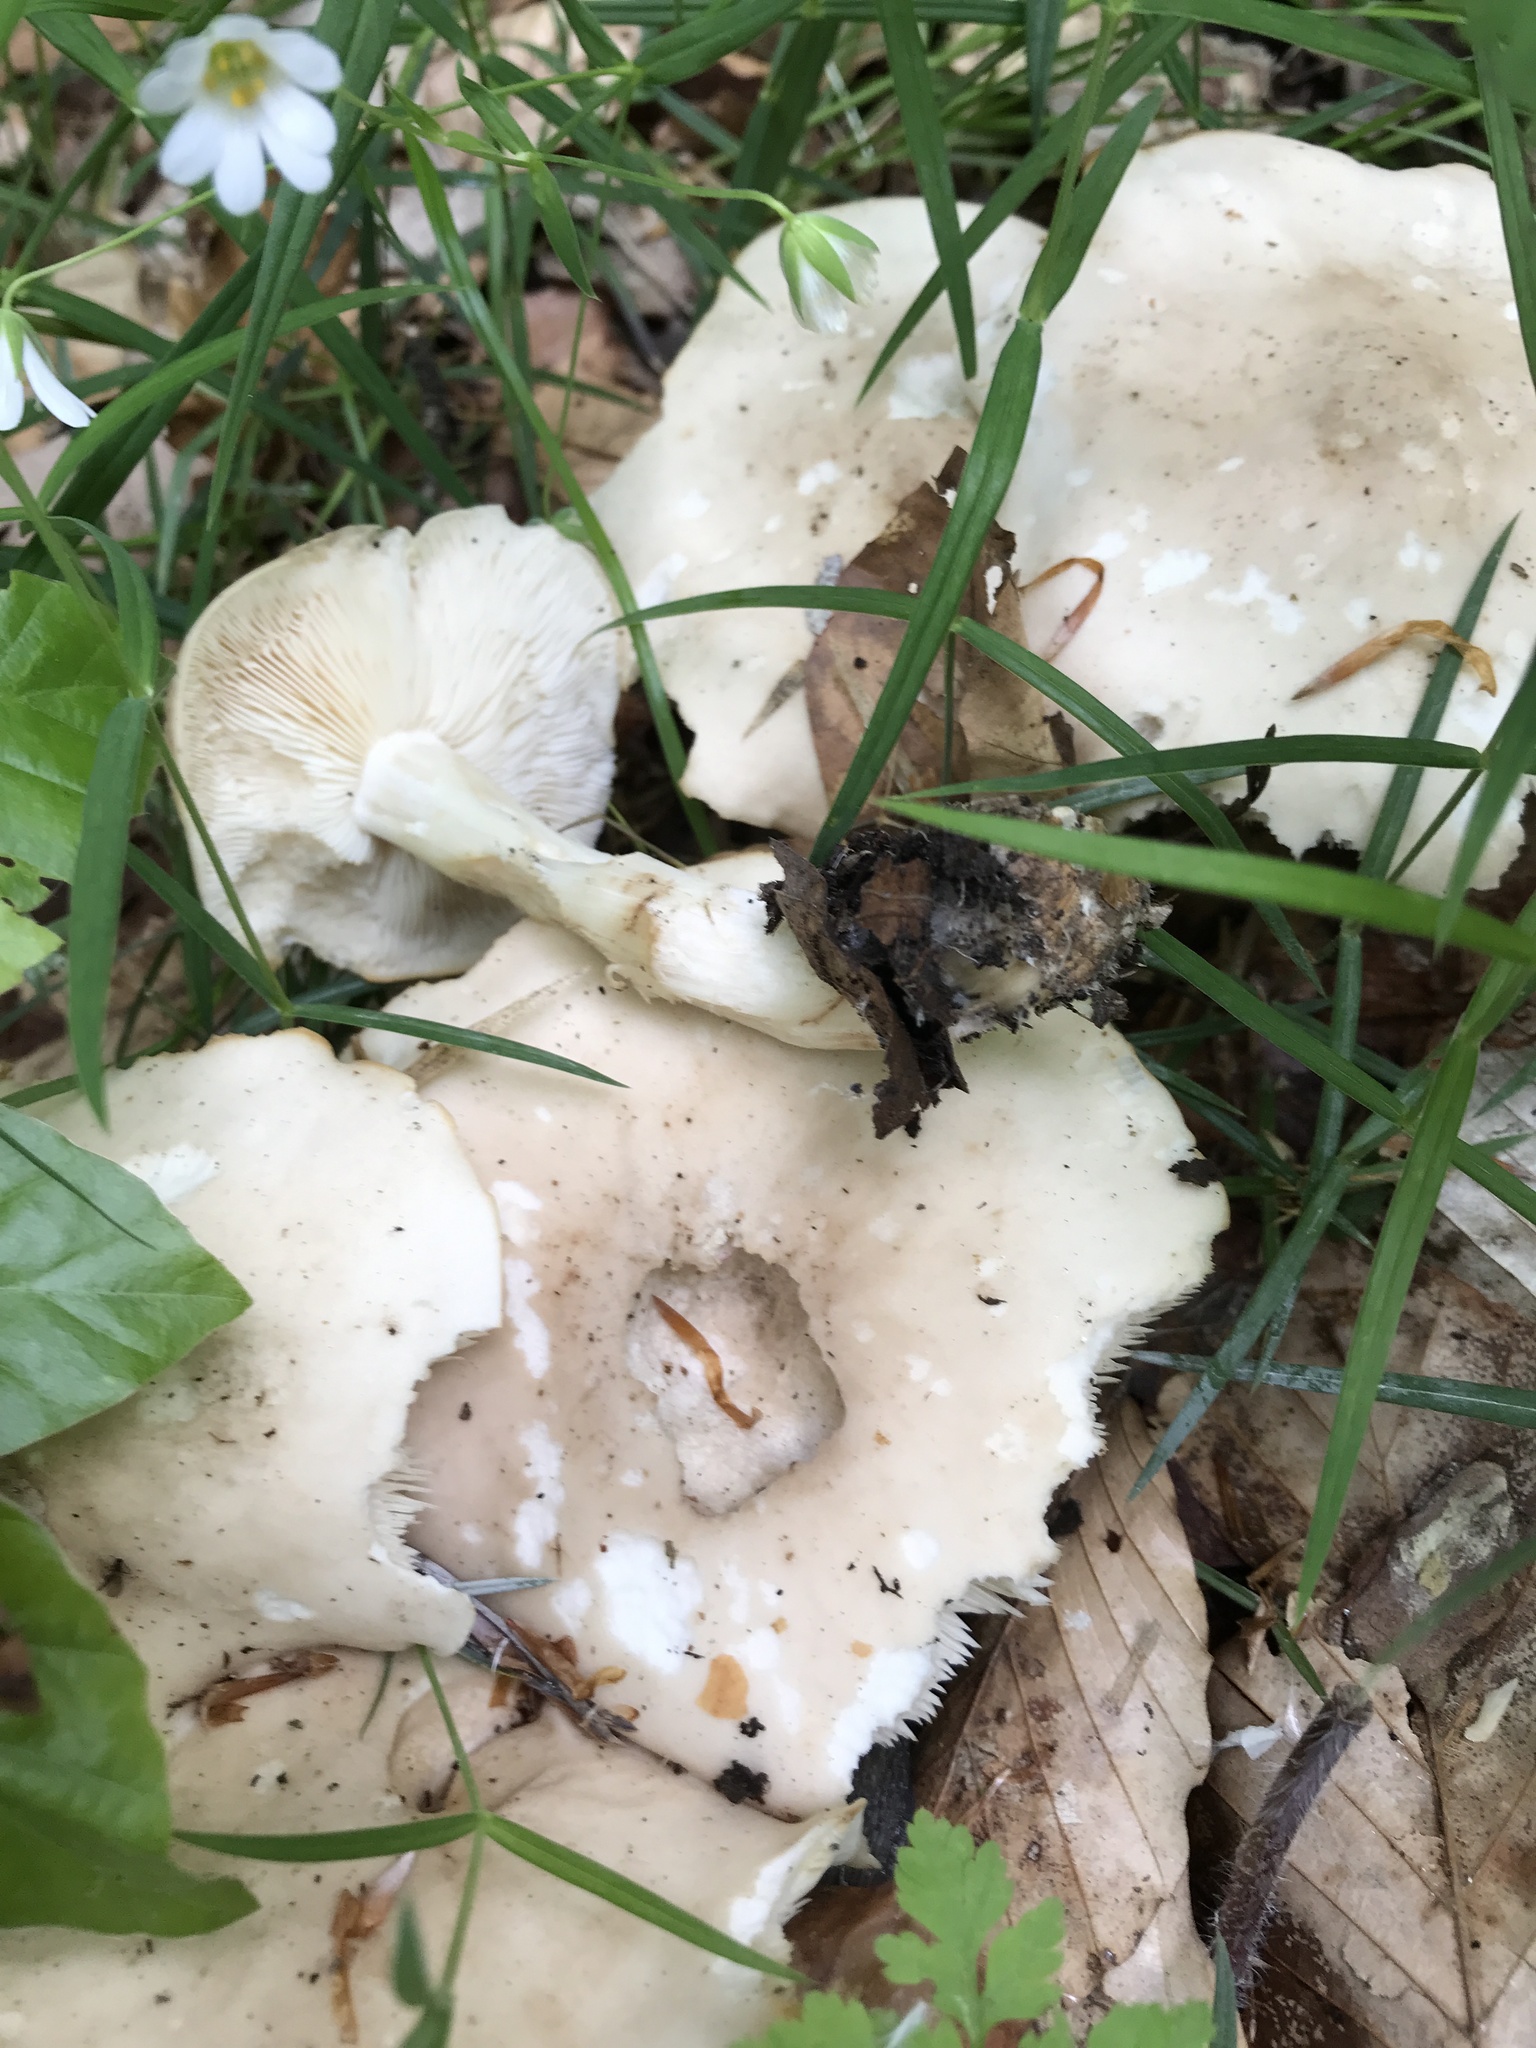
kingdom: Fungi
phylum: Basidiomycota
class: Agaricomycetes
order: Agaricales
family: Lyophyllaceae
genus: Calocybe
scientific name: Calocybe gambosa
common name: St. george's mushroom
